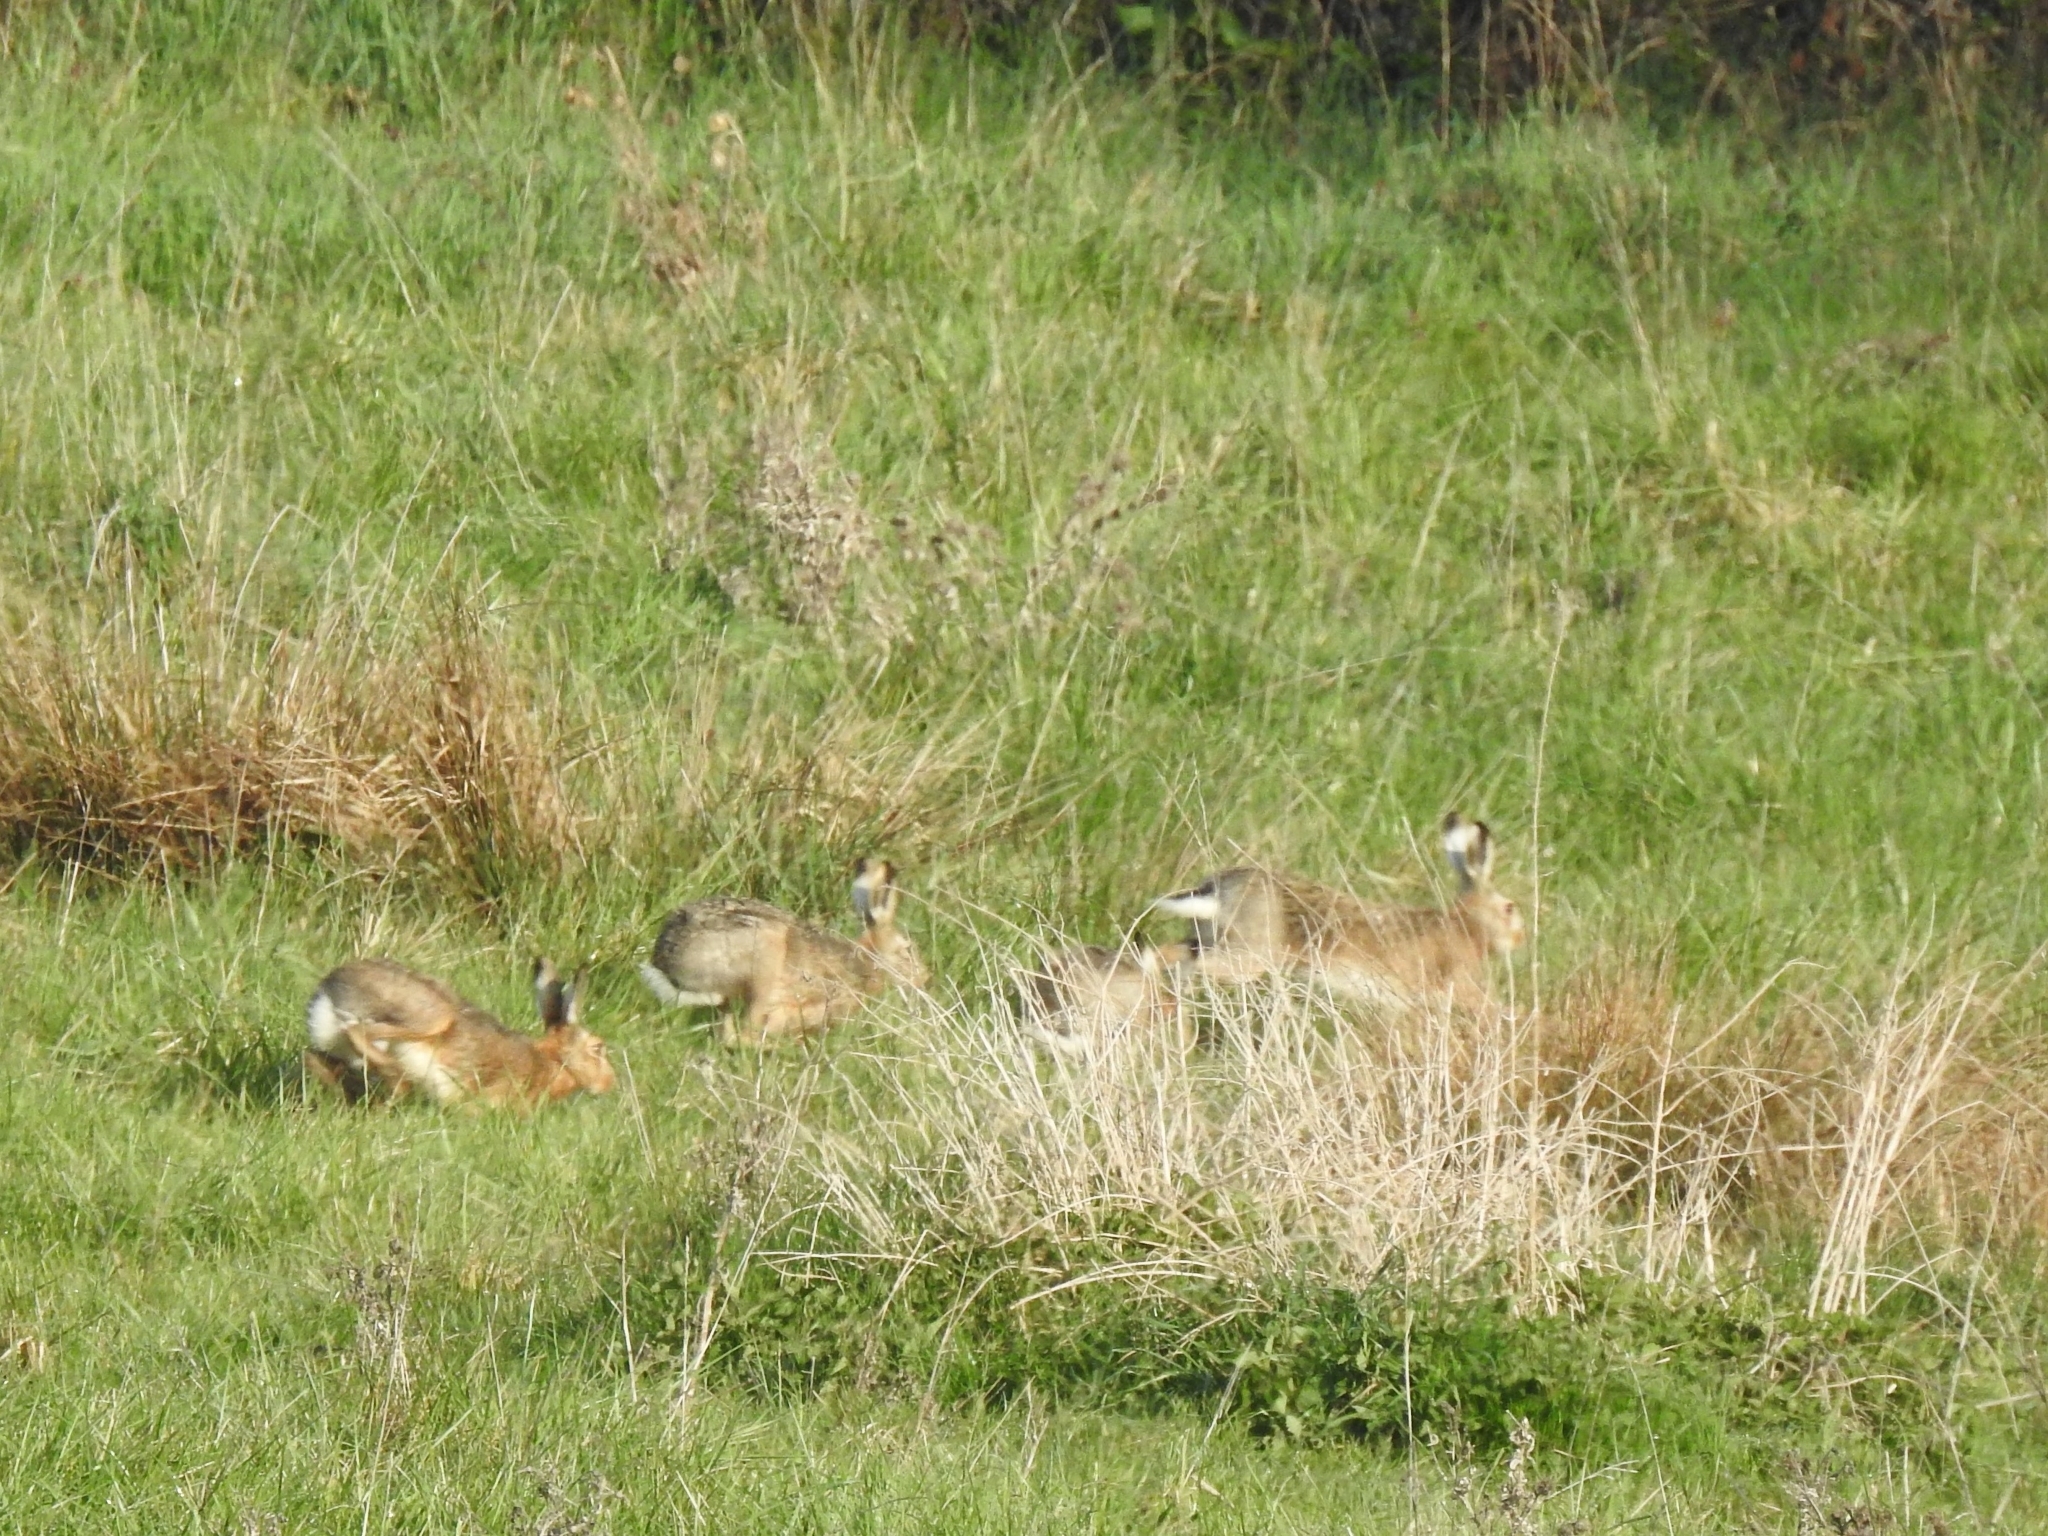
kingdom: Animalia
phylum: Chordata
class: Mammalia
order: Lagomorpha
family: Leporidae
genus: Lepus
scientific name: Lepus europaeus
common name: European hare
